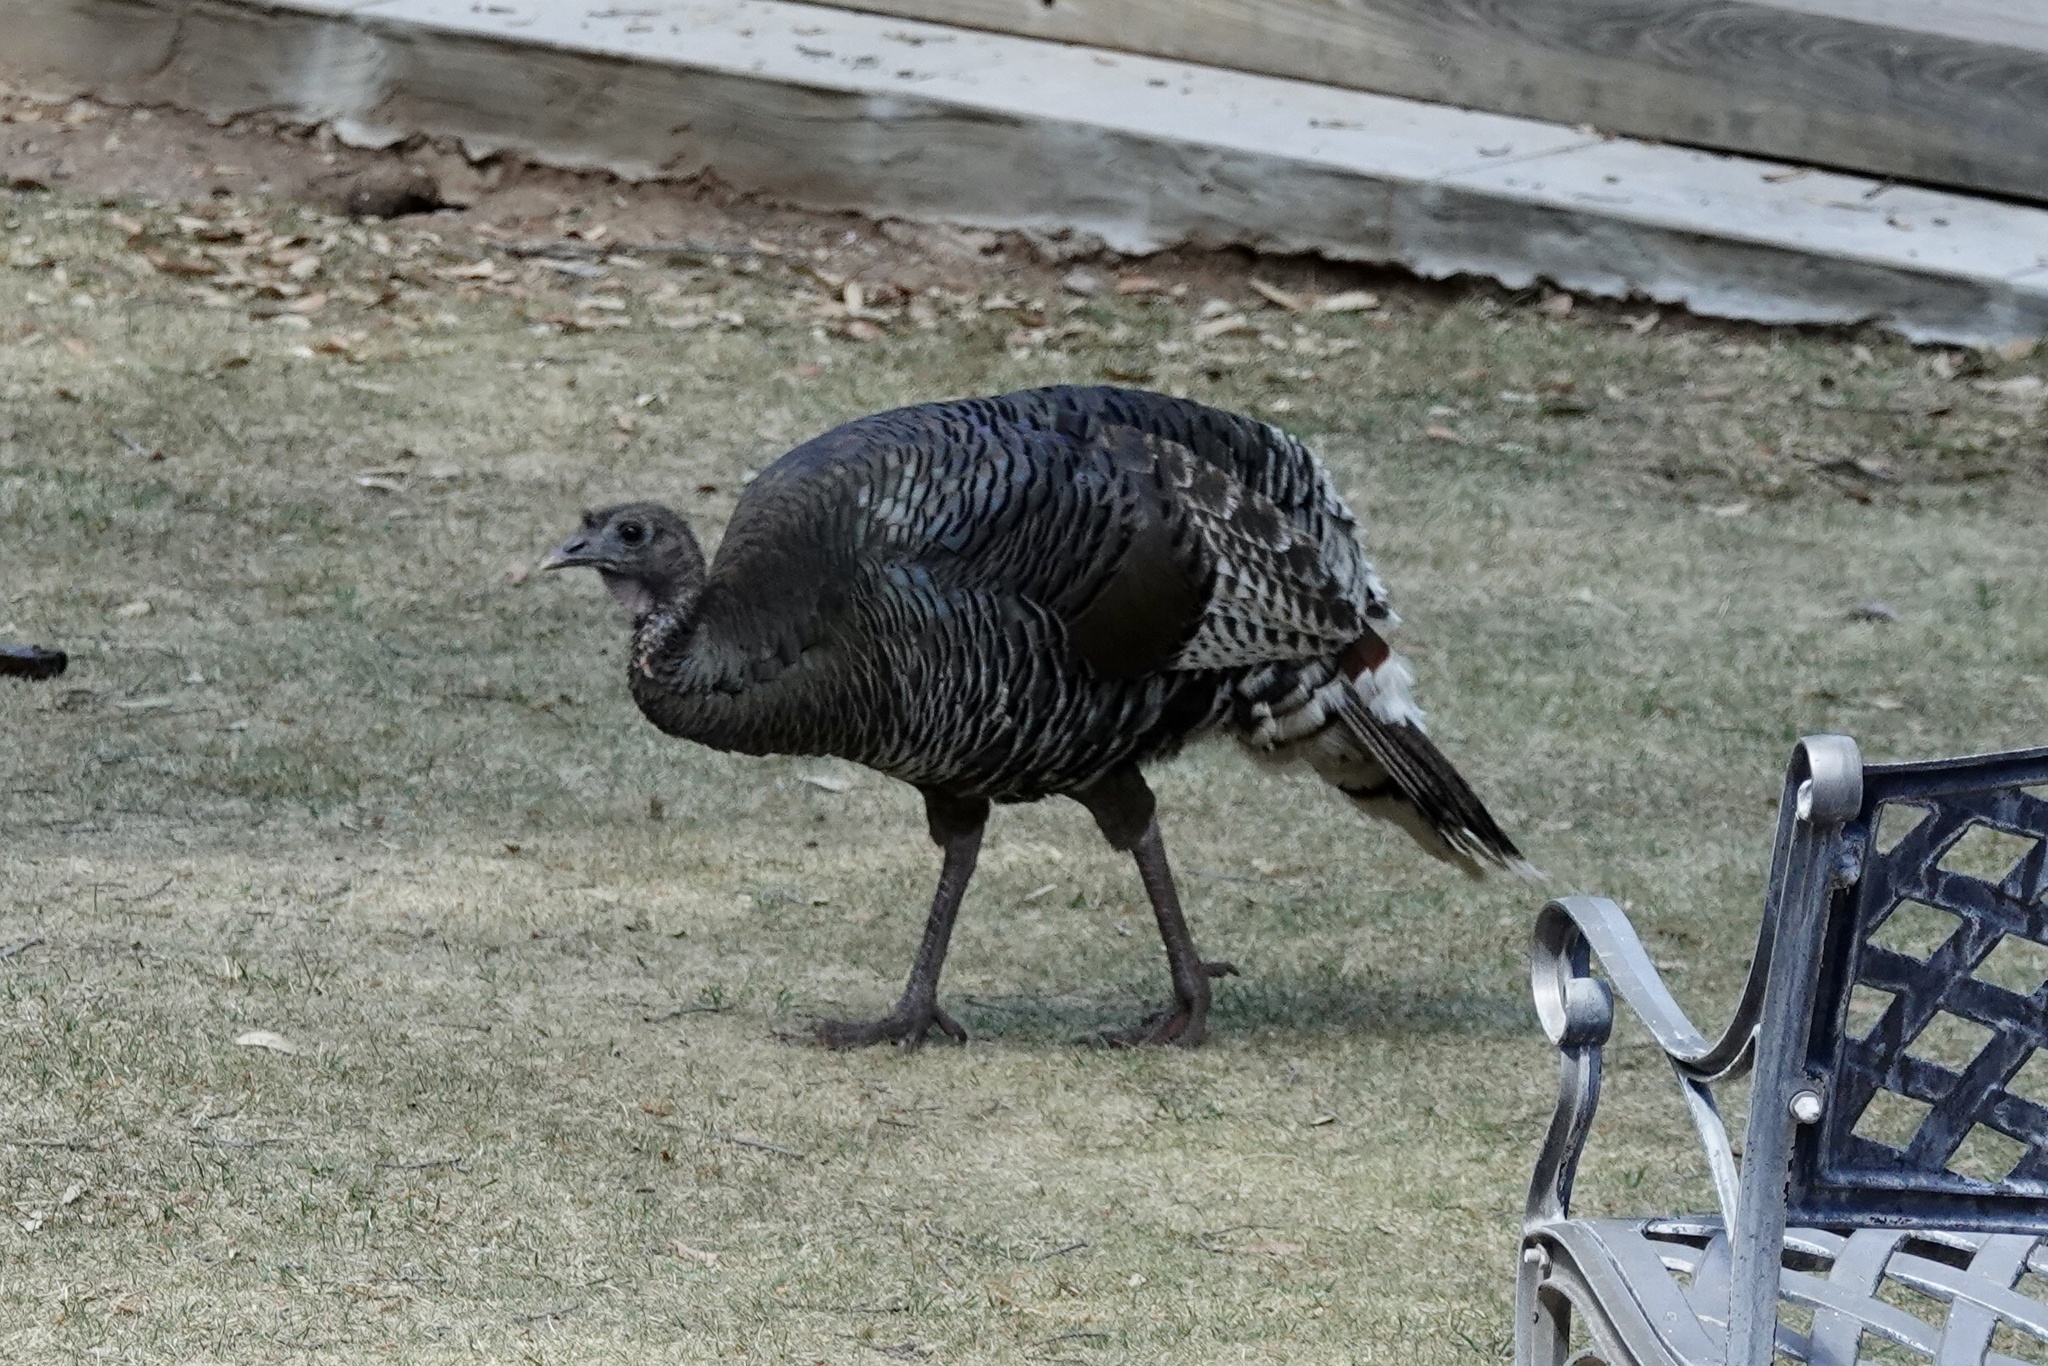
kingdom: Animalia
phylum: Chordata
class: Aves
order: Galliformes
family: Phasianidae
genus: Meleagris
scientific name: Meleagris gallopavo
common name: Wild turkey
